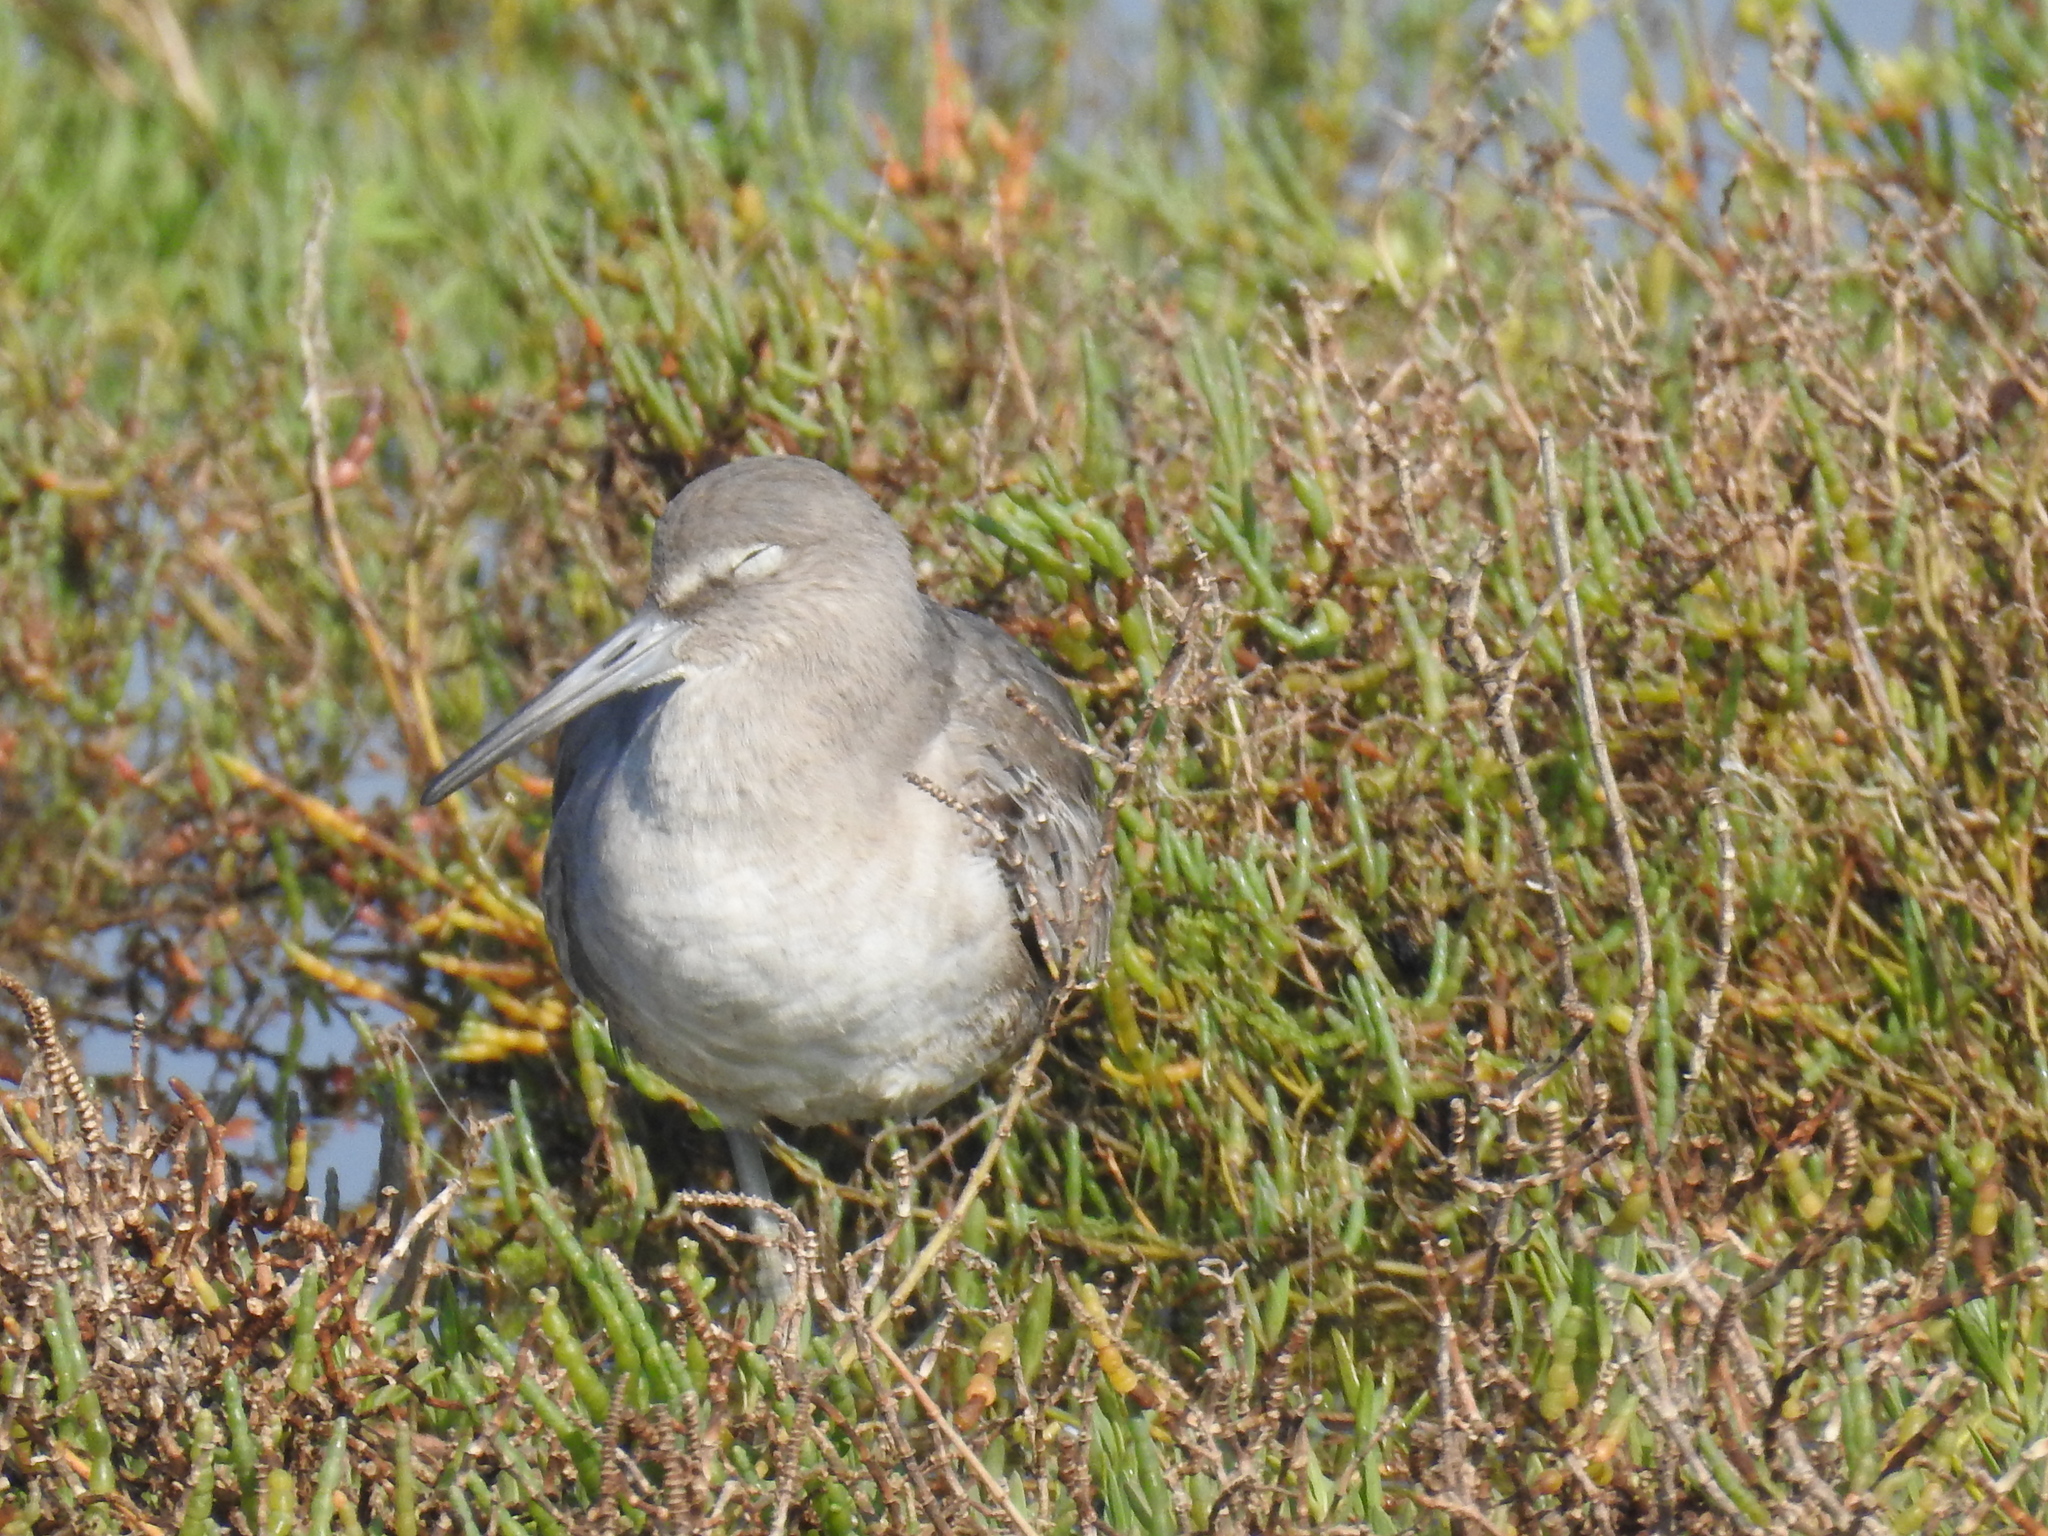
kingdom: Animalia
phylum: Chordata
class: Aves
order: Charadriiformes
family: Scolopacidae
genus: Tringa
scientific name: Tringa semipalmata
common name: Willet
